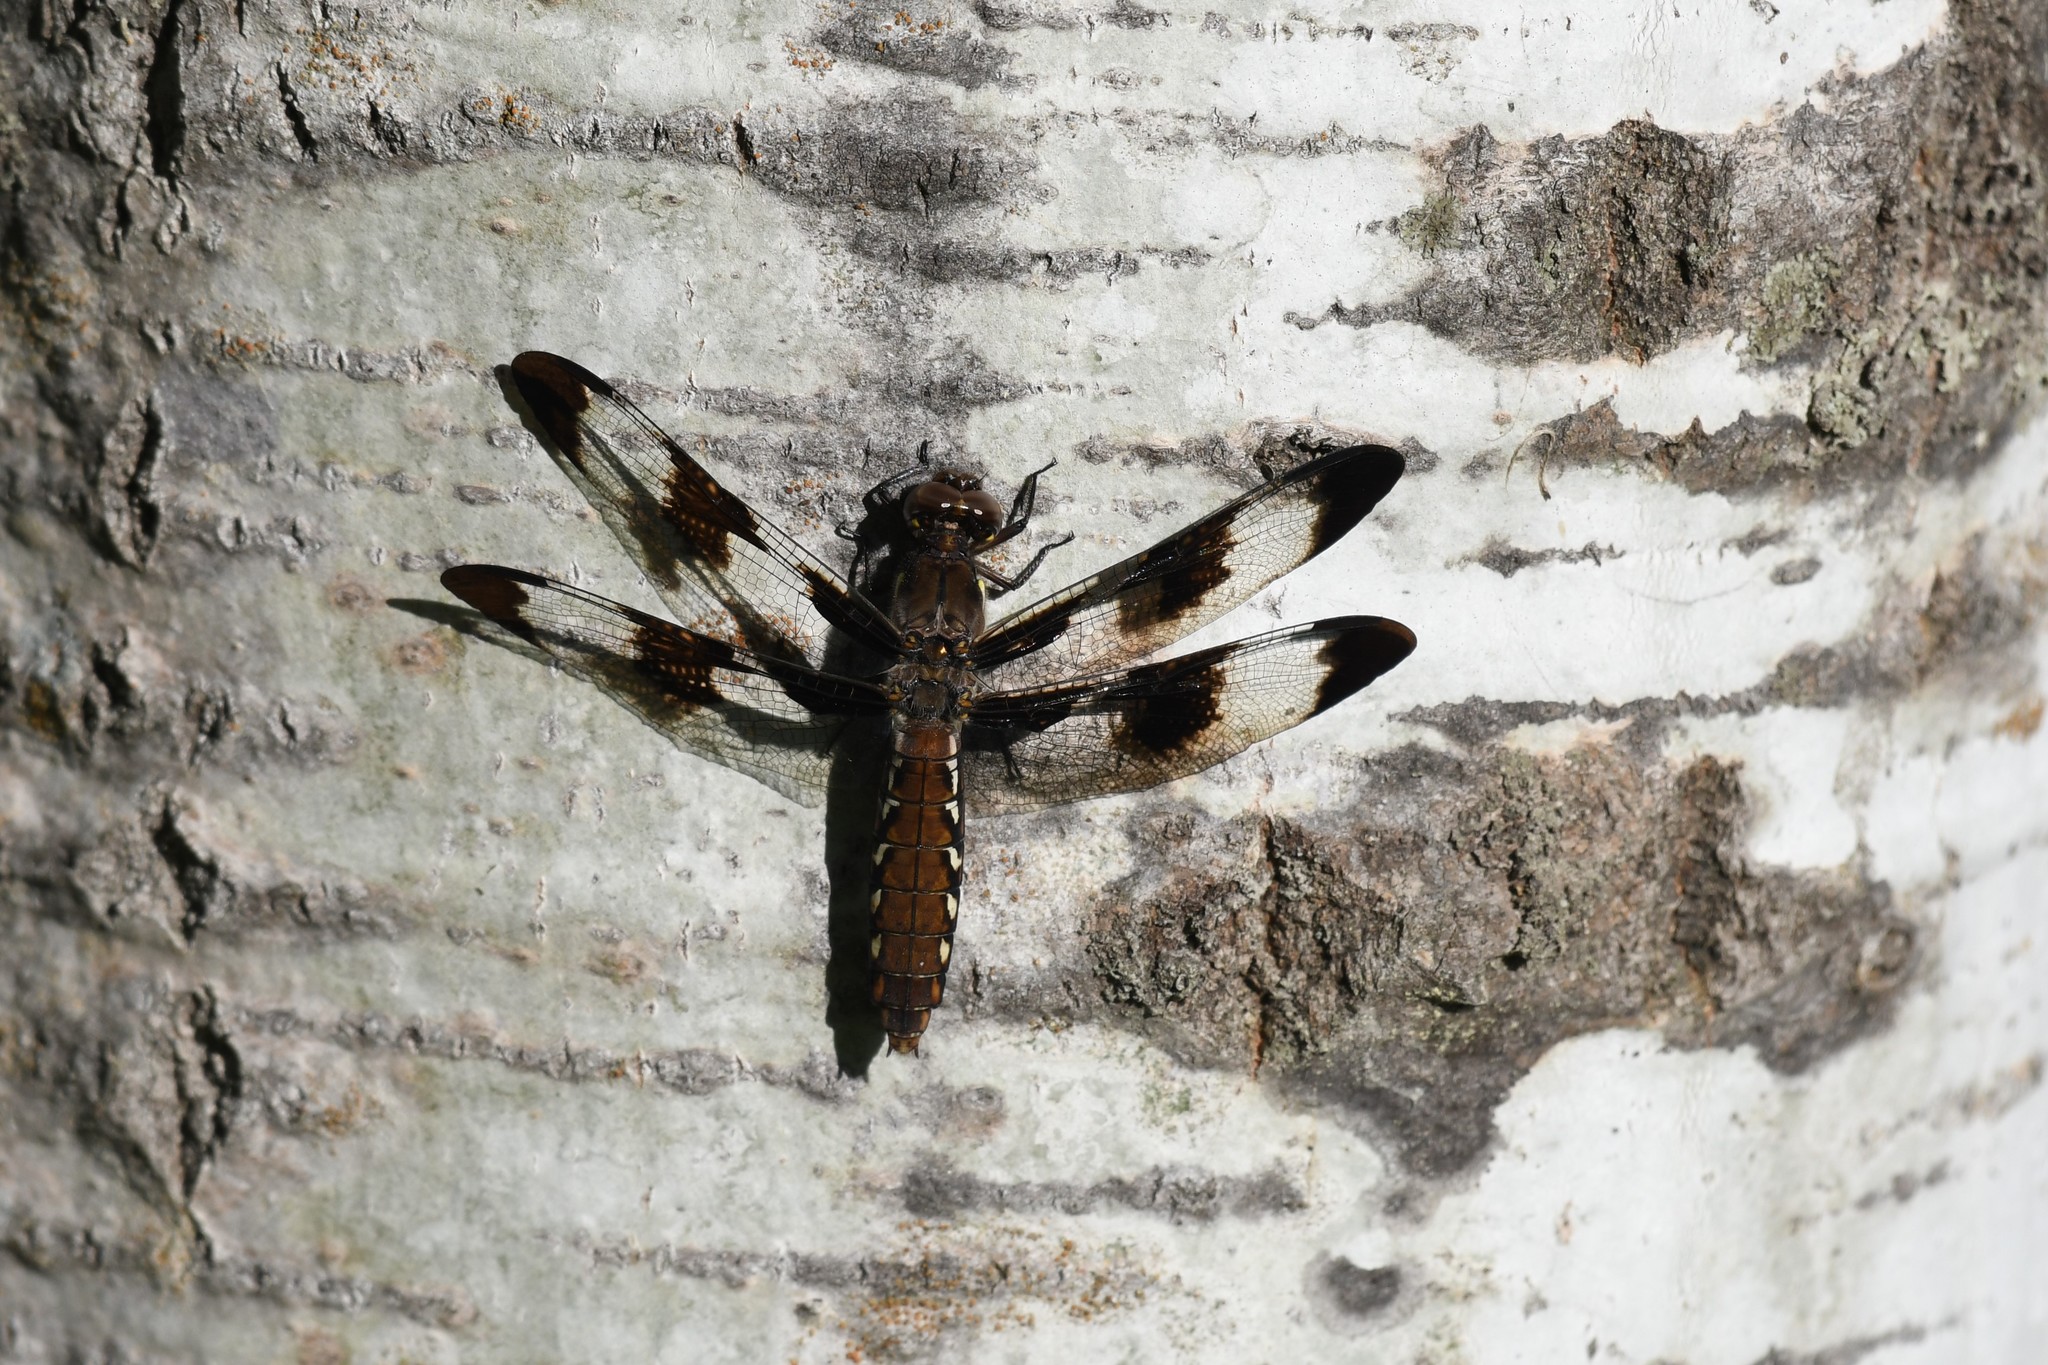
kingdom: Animalia
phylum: Arthropoda
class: Insecta
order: Odonata
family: Libellulidae
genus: Plathemis
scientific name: Plathemis lydia
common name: Common whitetail
